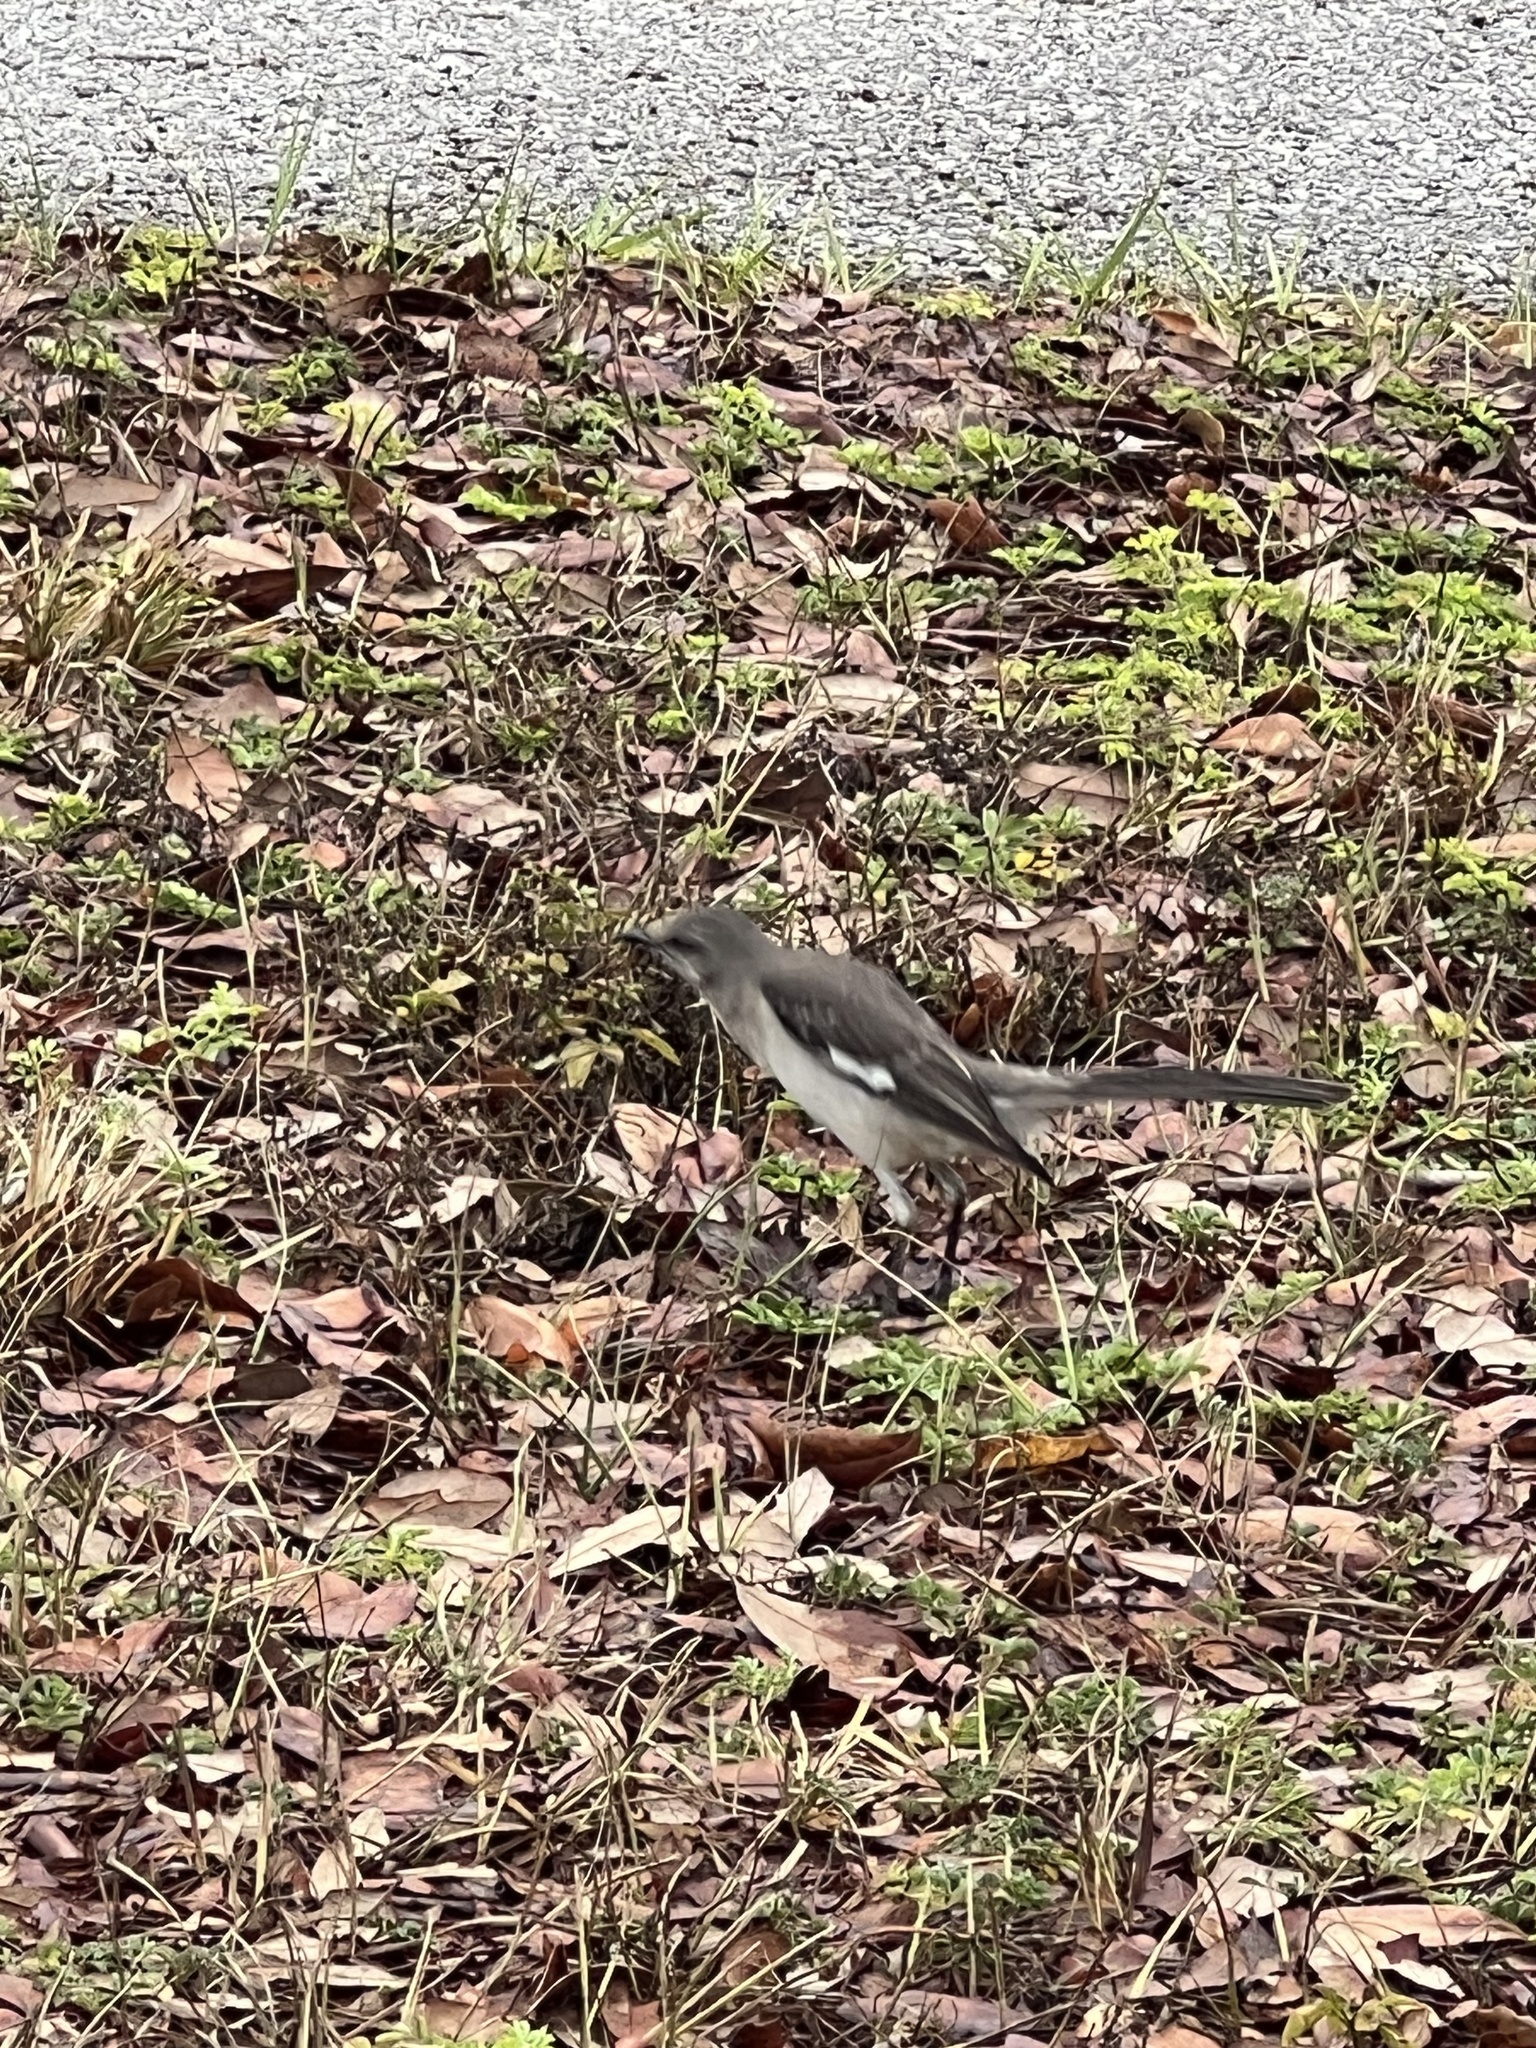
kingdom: Animalia
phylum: Chordata
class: Aves
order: Passeriformes
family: Mimidae
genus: Mimus
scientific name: Mimus polyglottos
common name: Northern mockingbird
